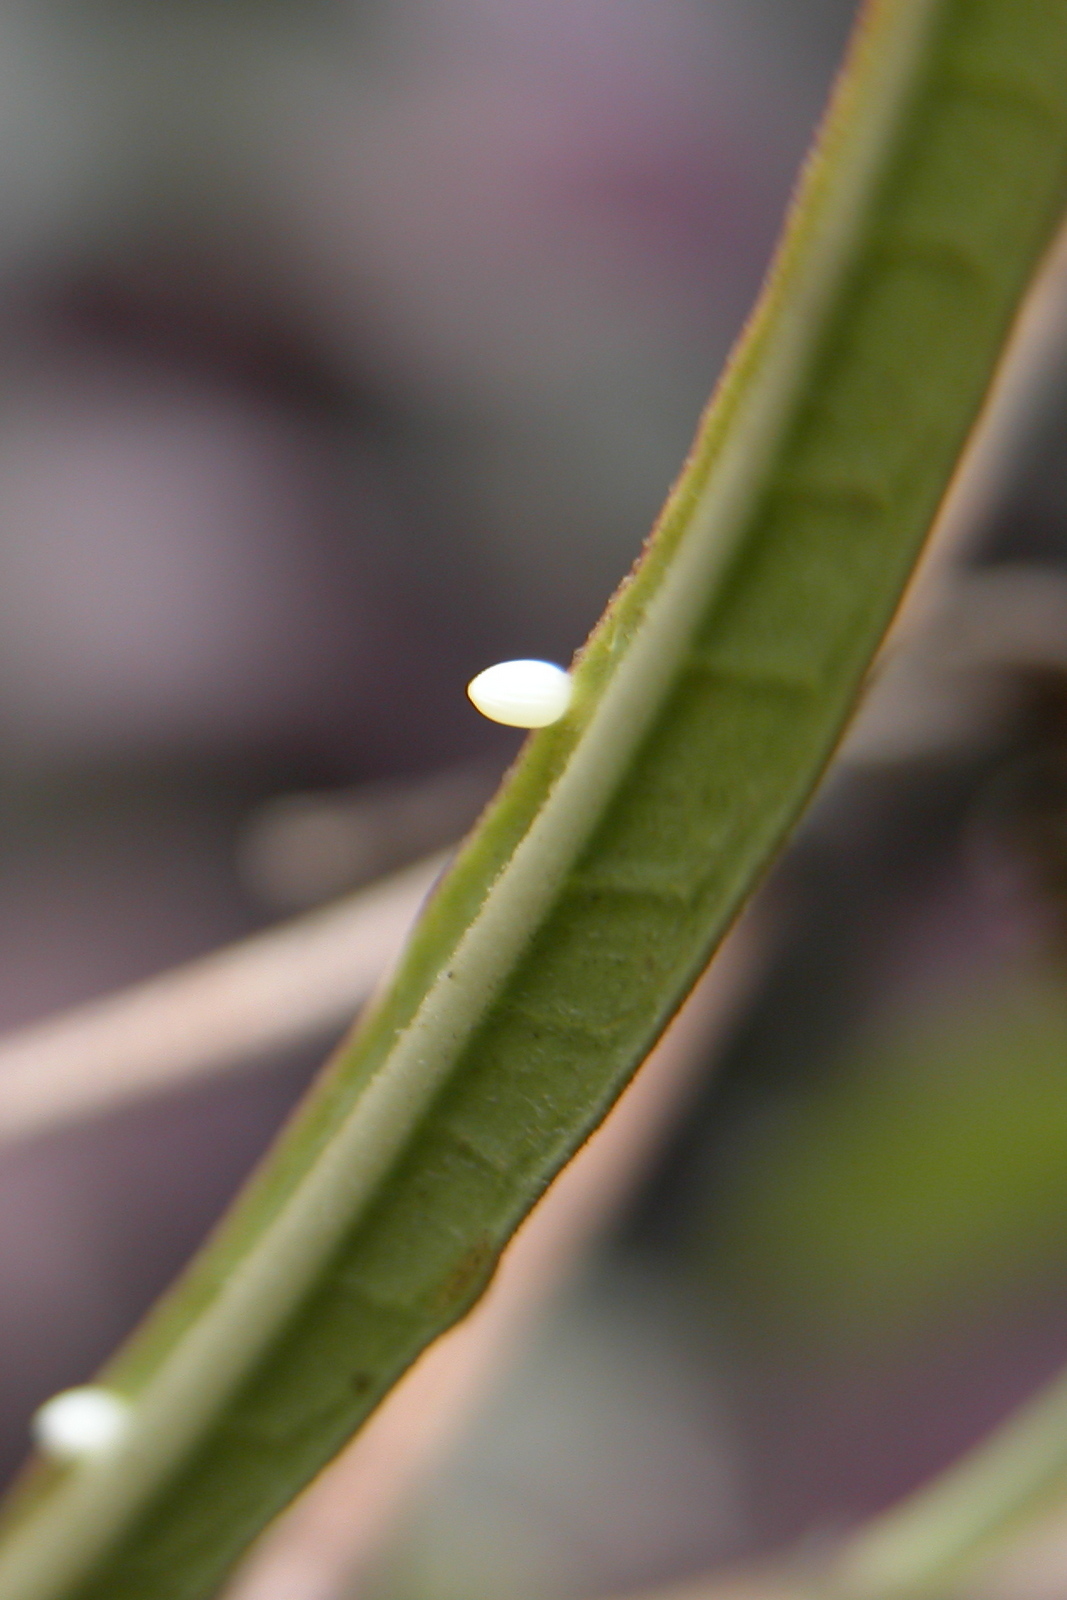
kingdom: Animalia
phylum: Arthropoda
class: Insecta
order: Lepidoptera
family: Nymphalidae
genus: Danaus
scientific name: Danaus chrysippus
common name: Plain tiger
